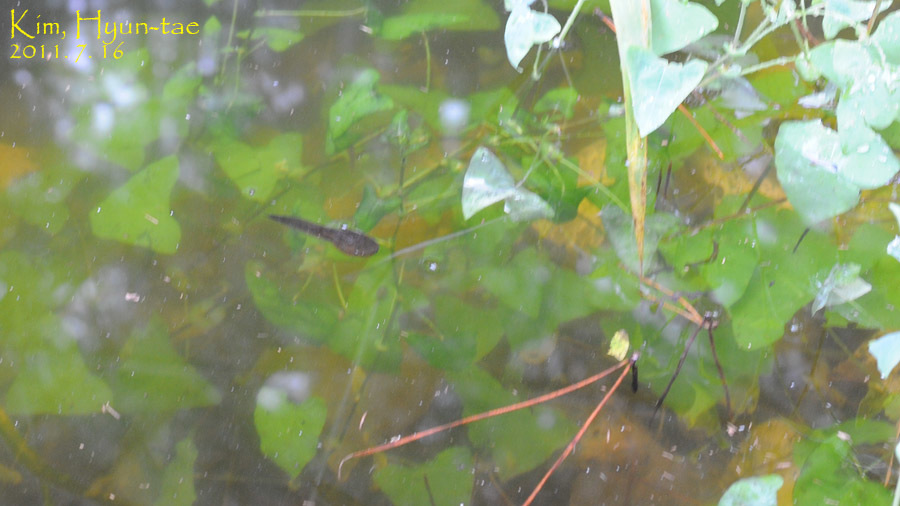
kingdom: Animalia
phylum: Chordata
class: Amphibia
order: Anura
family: Microhylidae
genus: Kaloula
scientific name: Kaloula borealis
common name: Boreal digging frog
